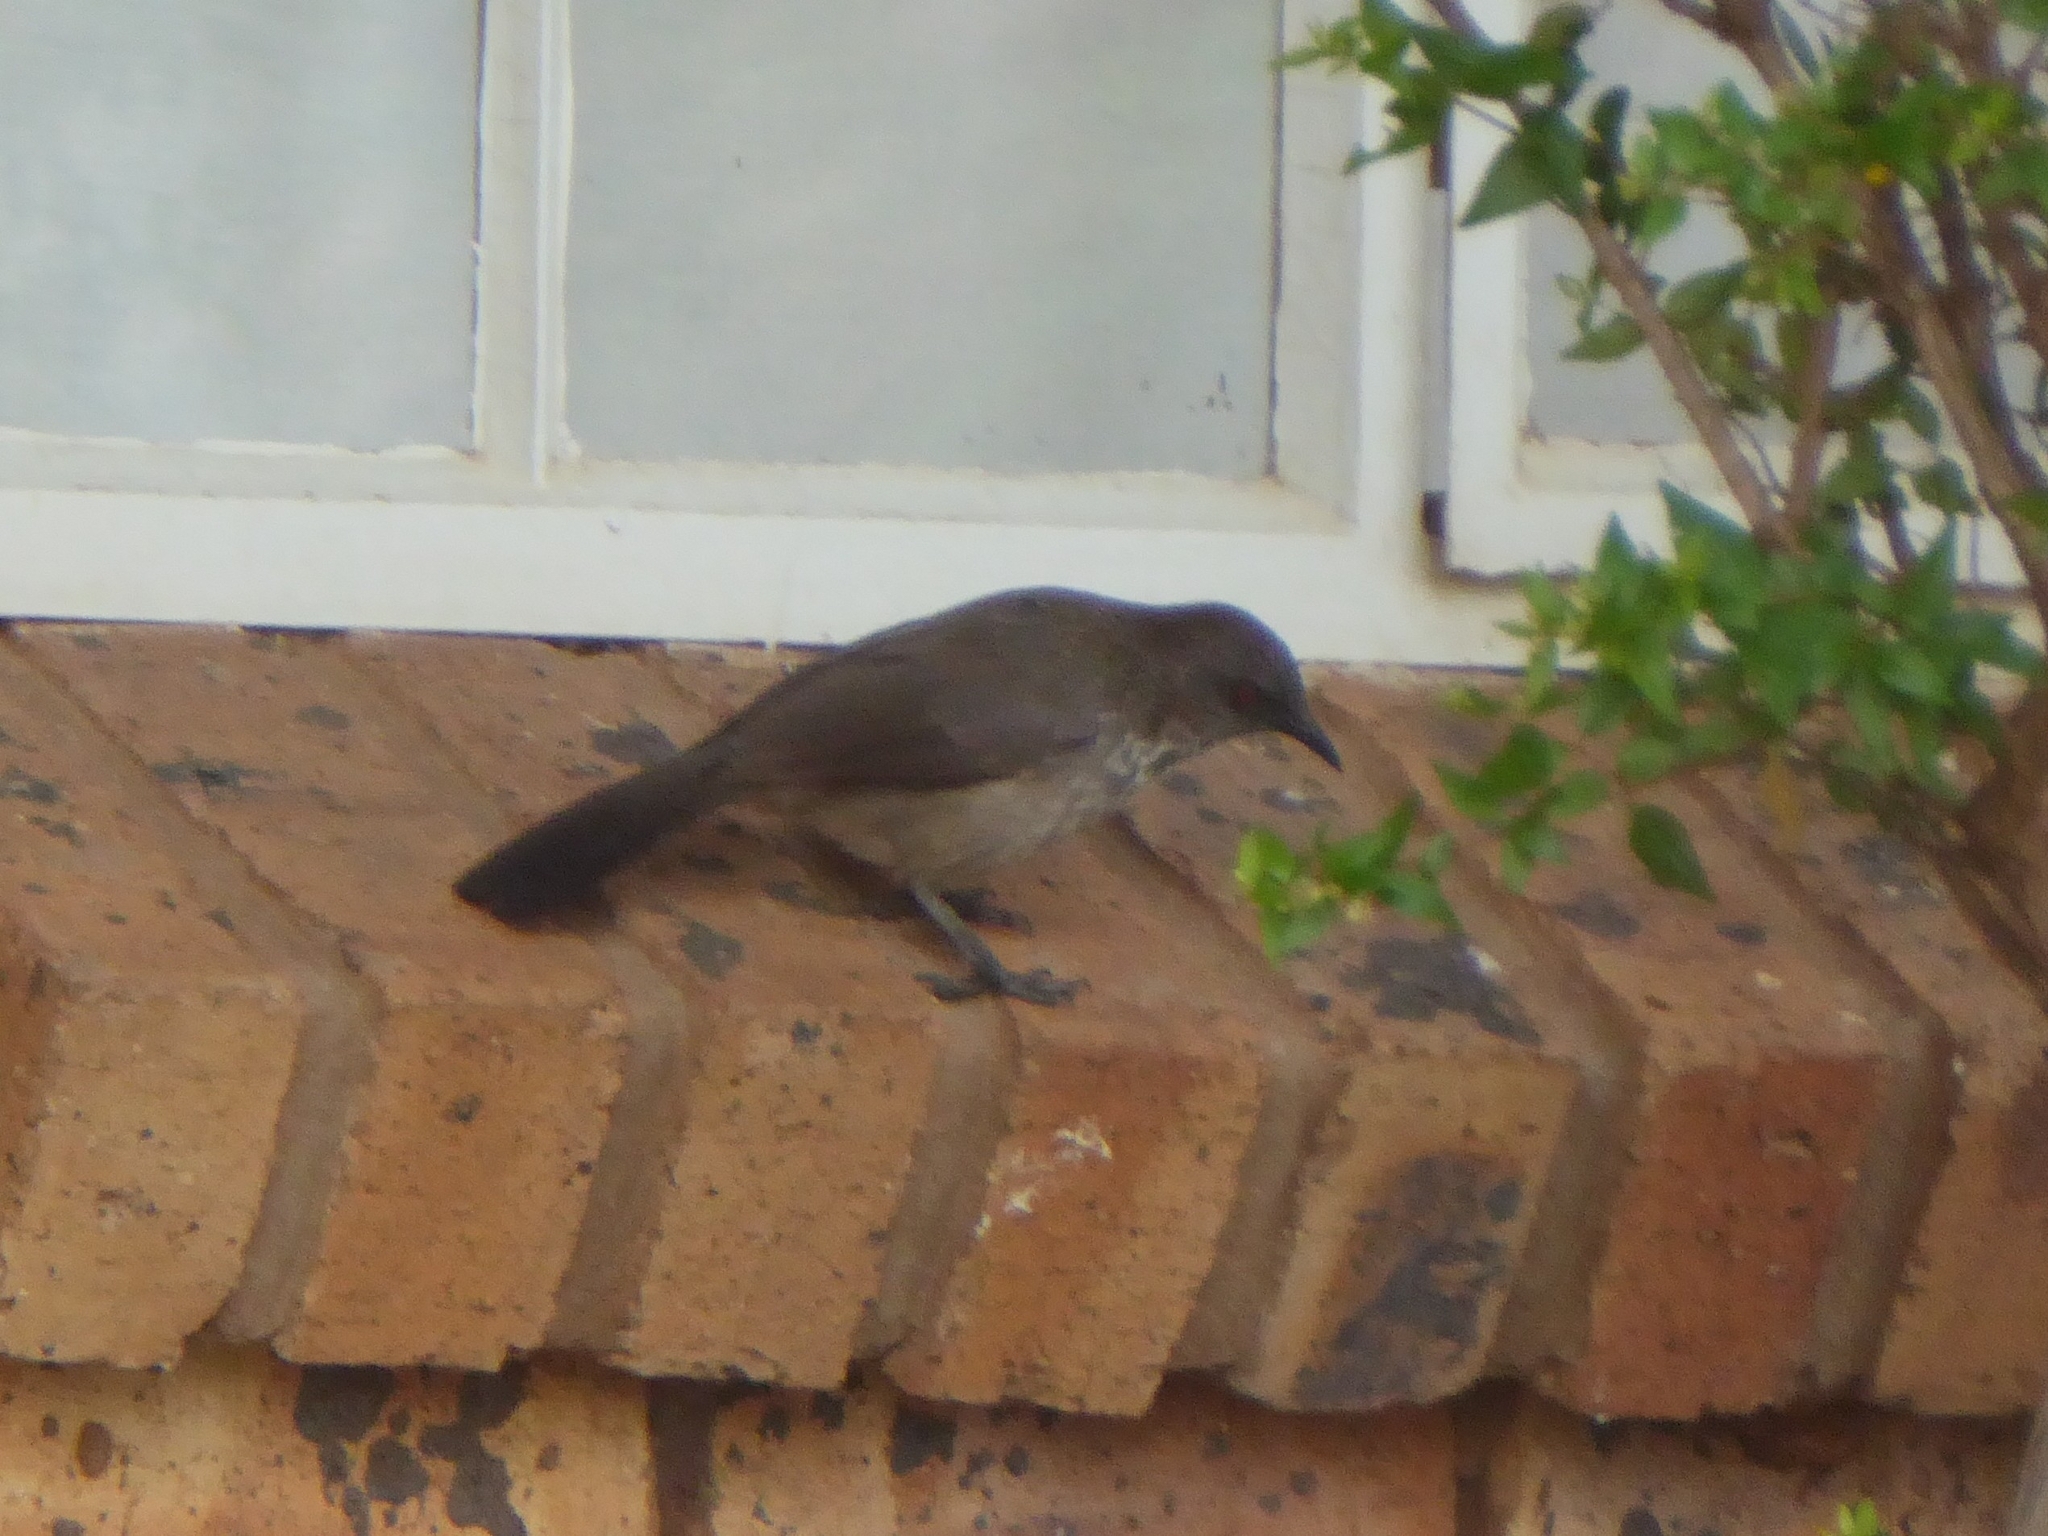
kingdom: Animalia
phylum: Chordata
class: Aves
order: Passeriformes
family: Leiothrichidae
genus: Turdoides
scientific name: Turdoides jardineii
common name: Arrow-marked babbler
